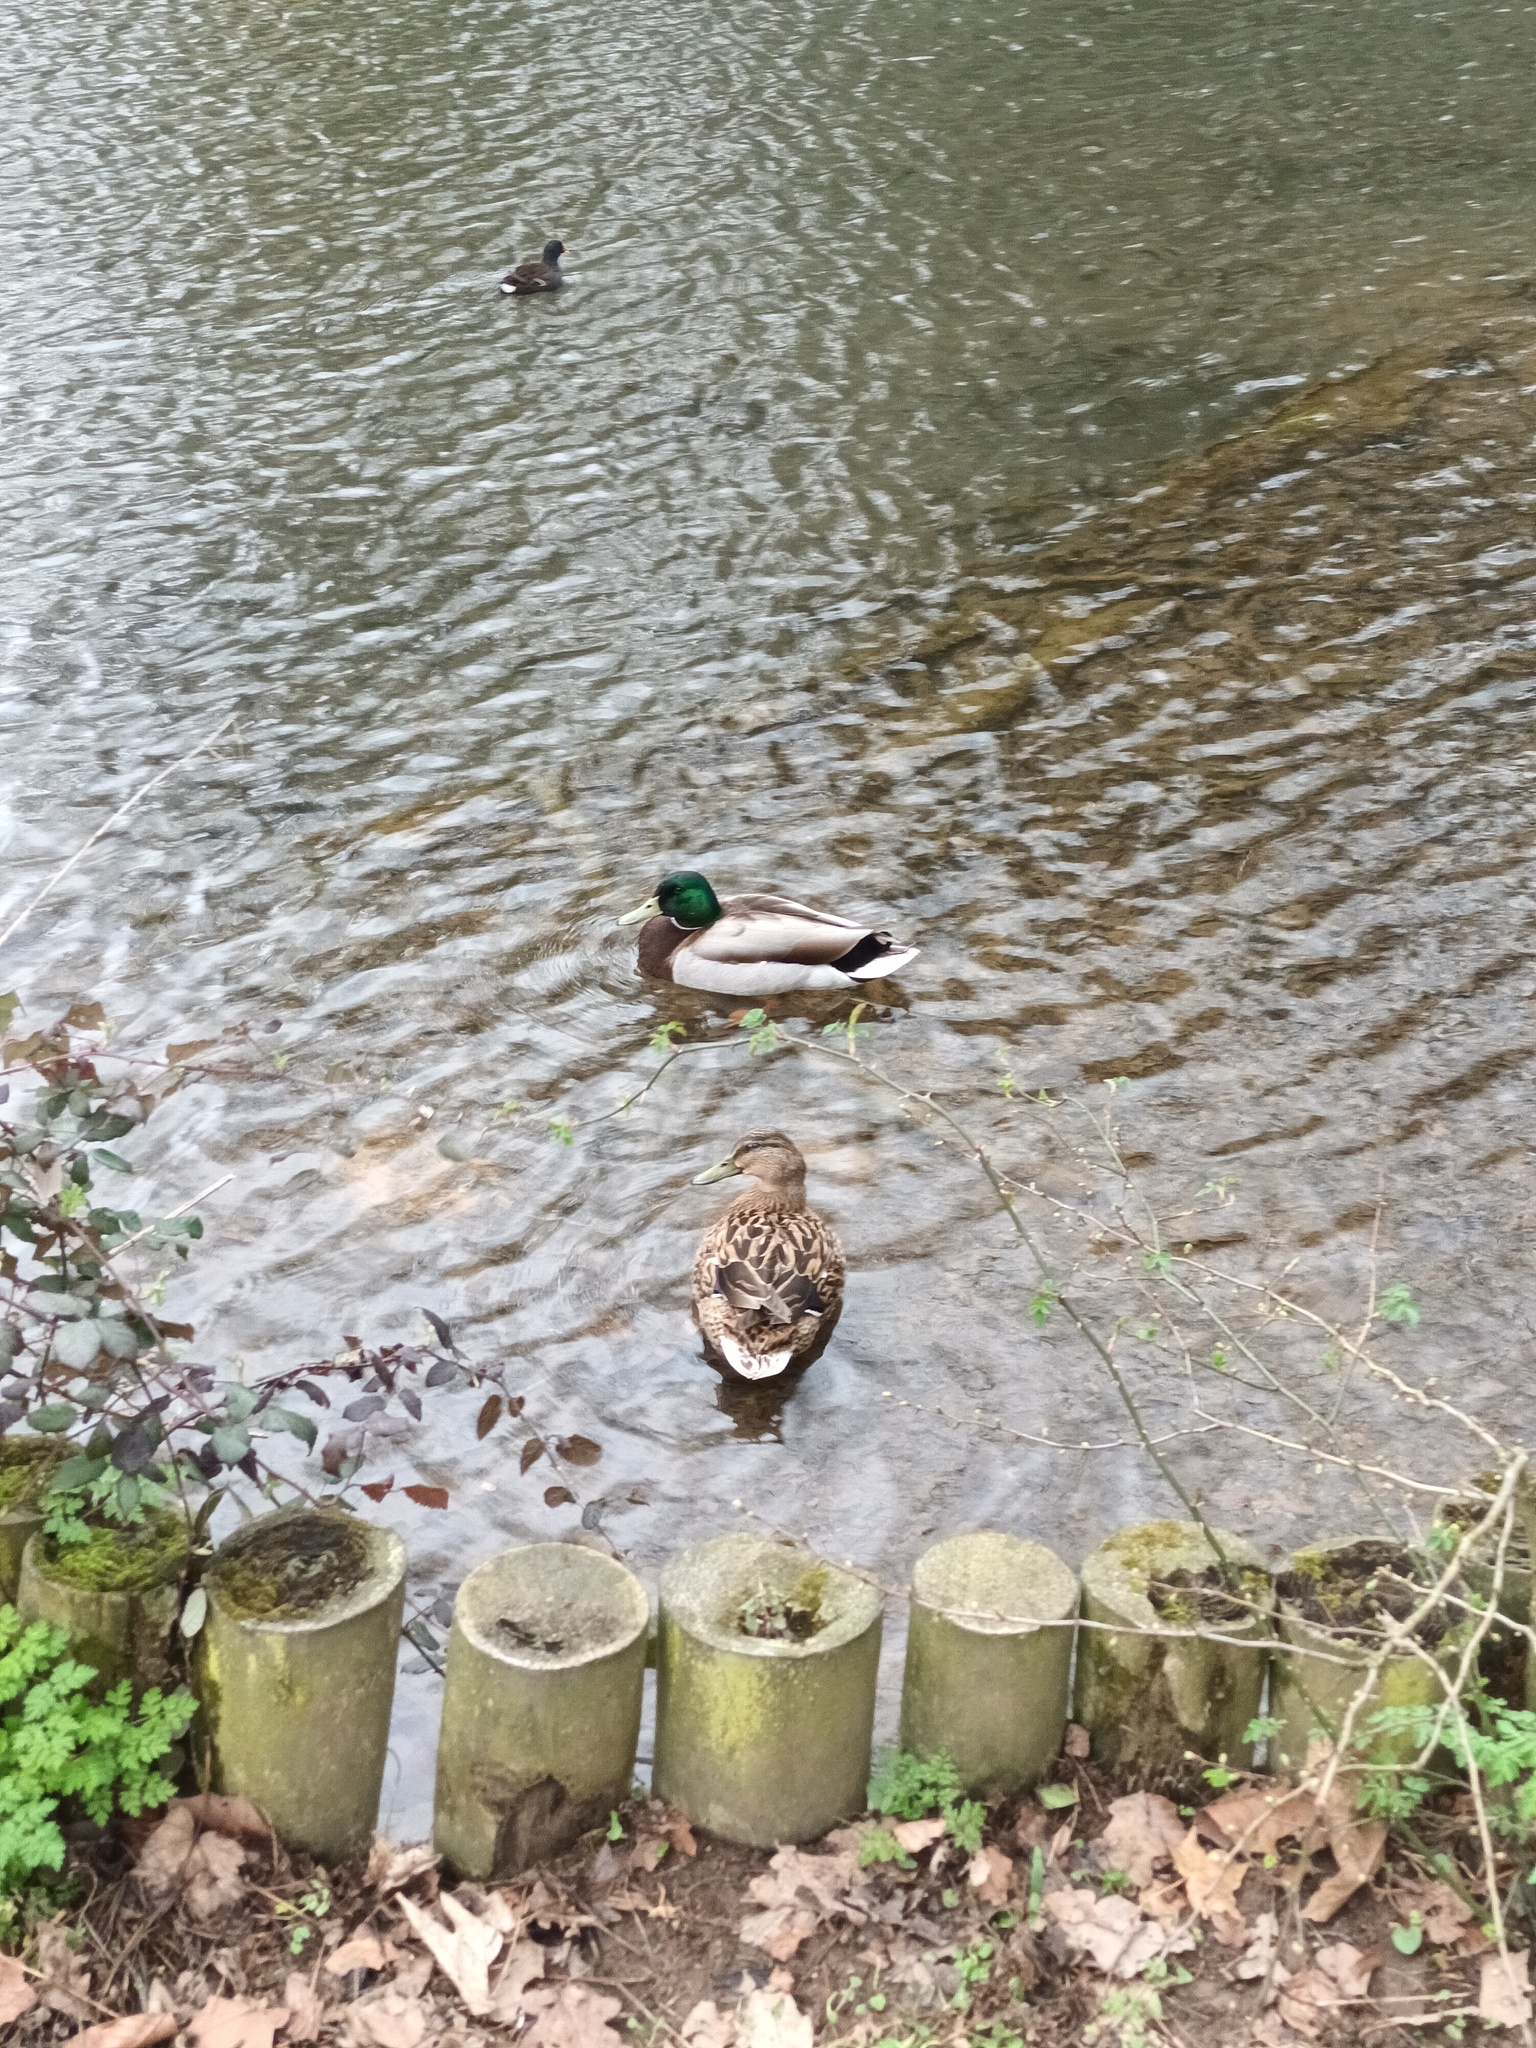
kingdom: Animalia
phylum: Chordata
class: Aves
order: Anseriformes
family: Anatidae
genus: Anas
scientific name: Anas platyrhynchos
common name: Mallard
